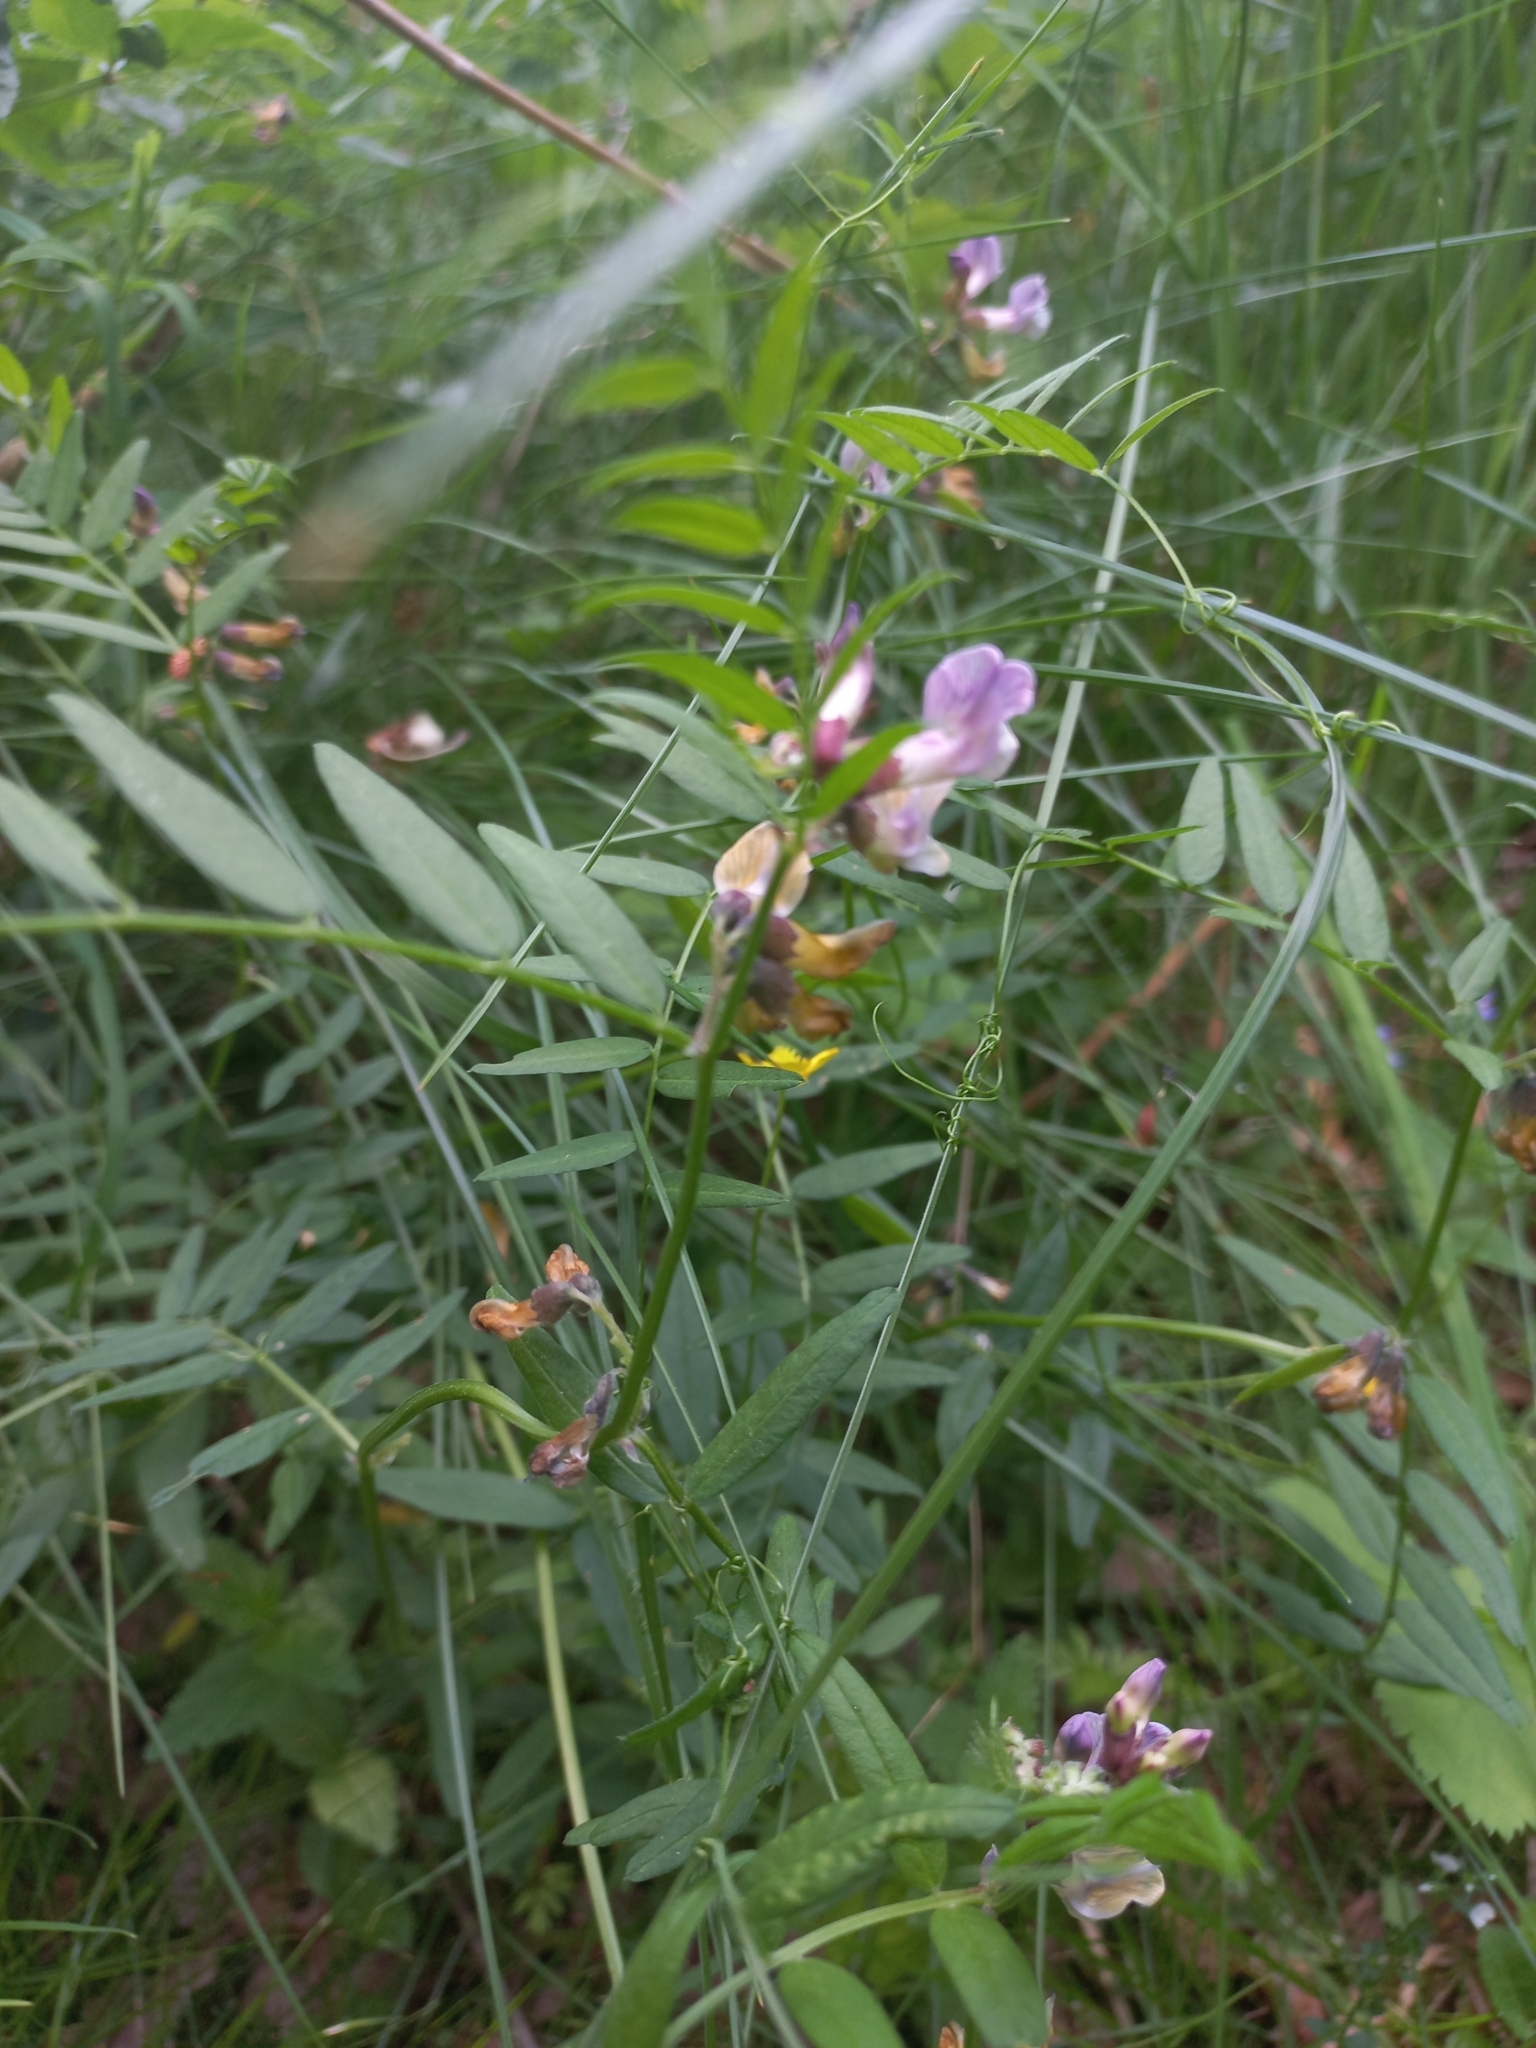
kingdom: Plantae
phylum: Tracheophyta
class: Magnoliopsida
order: Fabales
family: Fabaceae
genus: Vicia
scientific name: Vicia sepium
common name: Bush vetch
